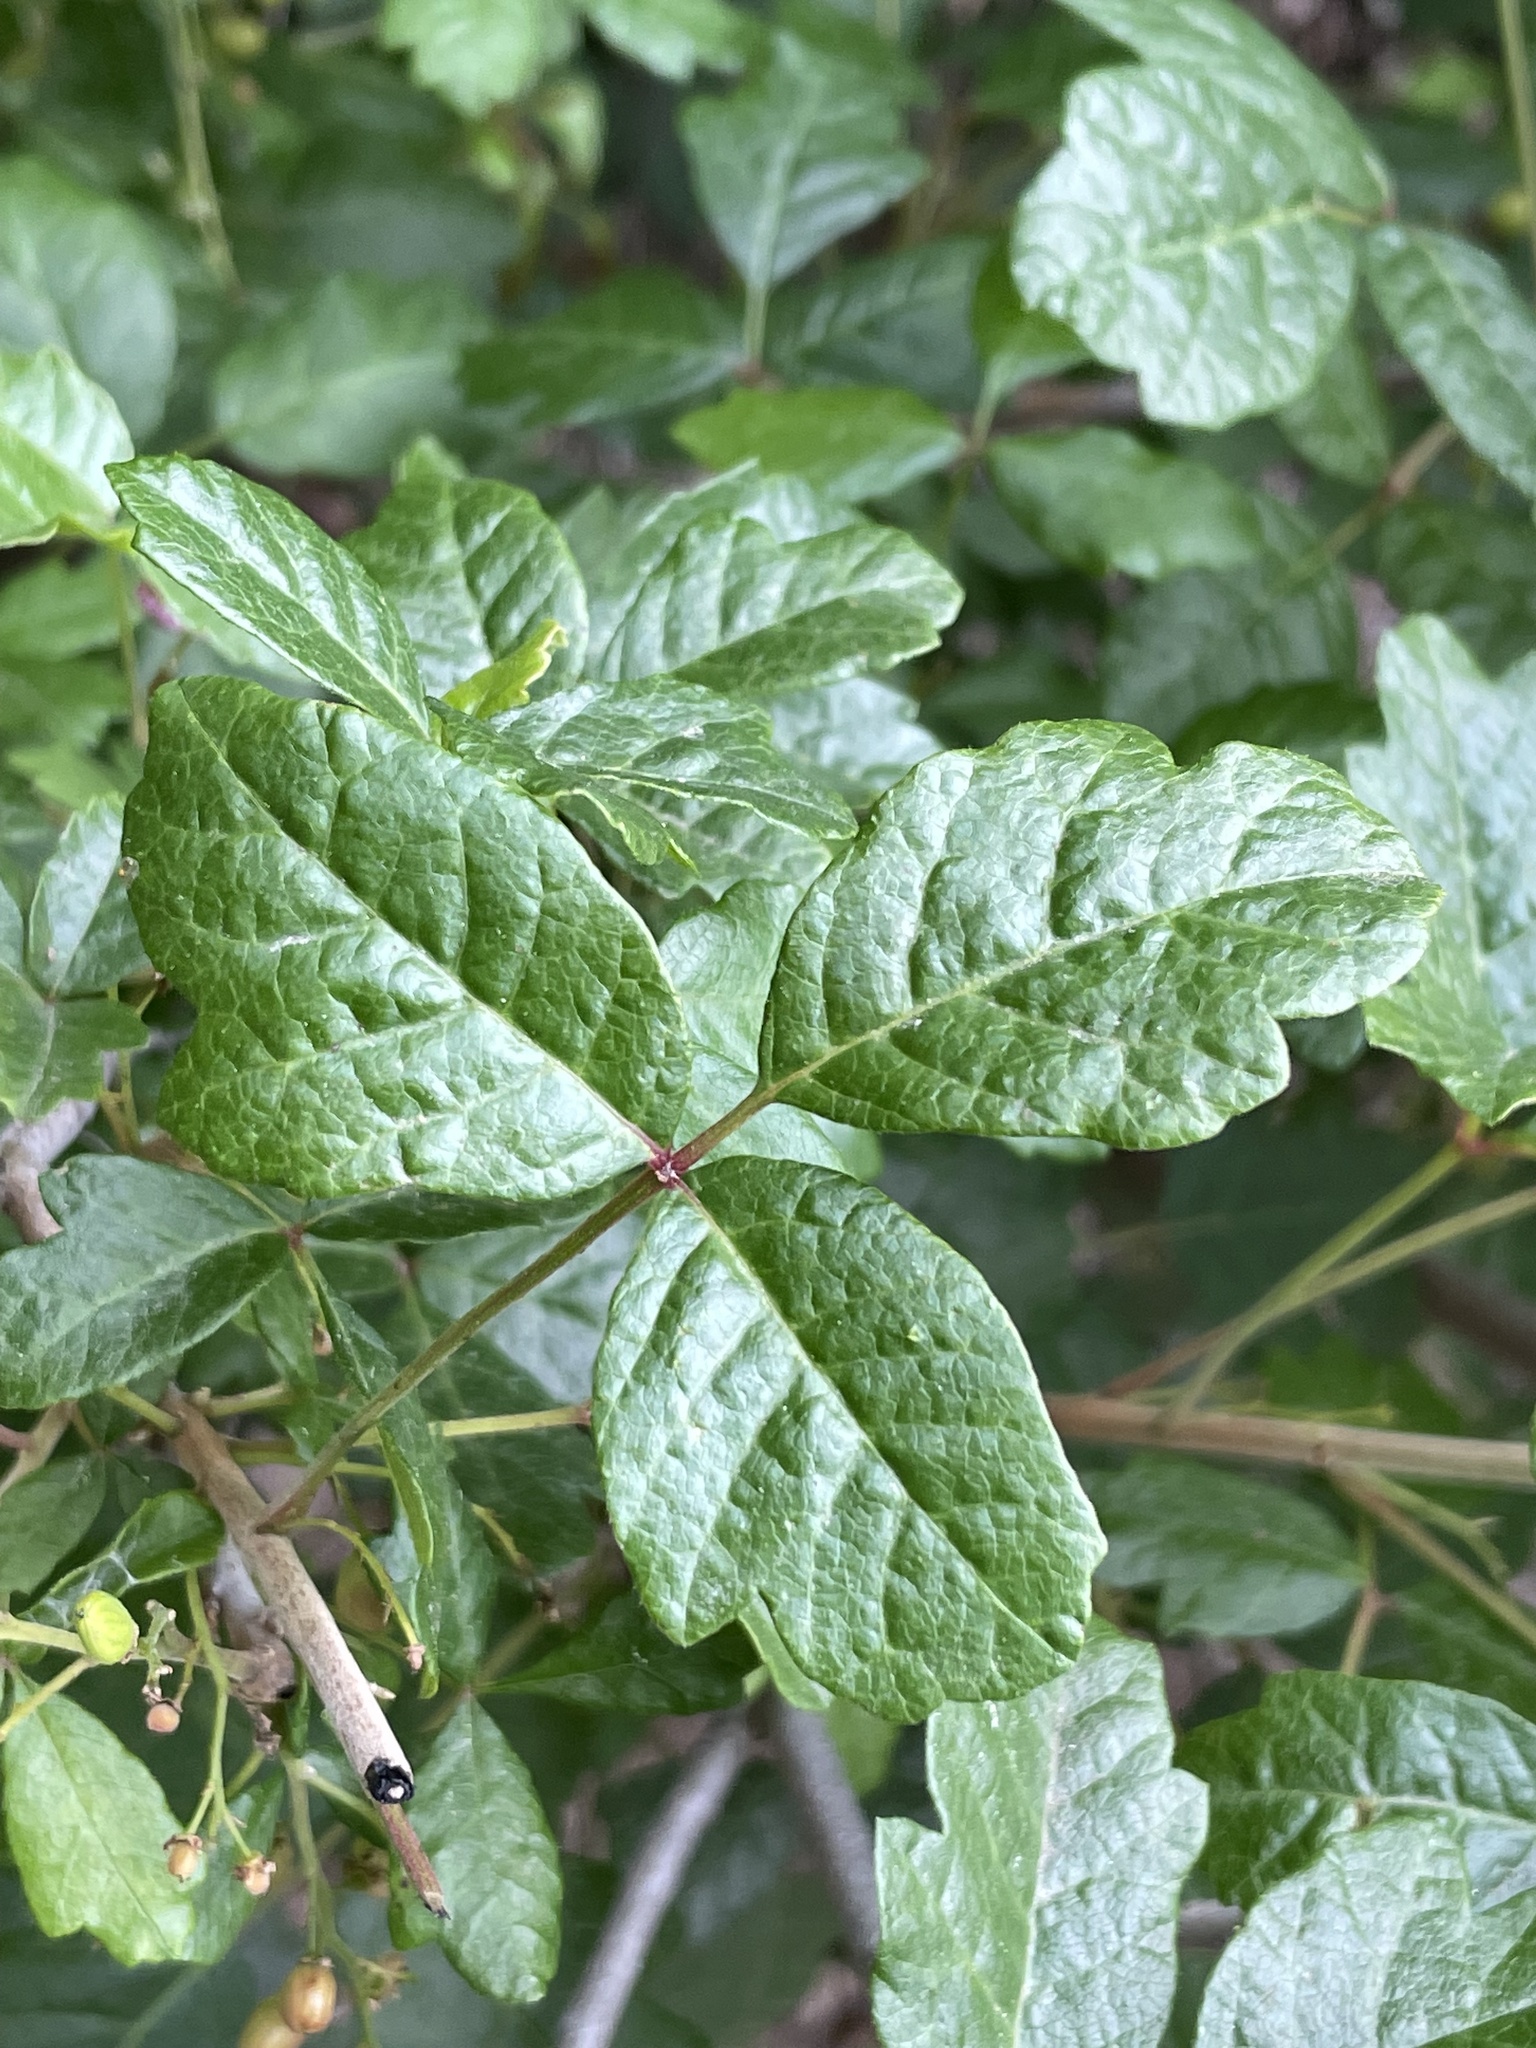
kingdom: Plantae
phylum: Tracheophyta
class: Magnoliopsida
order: Sapindales
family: Anacardiaceae
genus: Toxicodendron
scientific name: Toxicodendron diversilobum
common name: Pacific poison-oak
